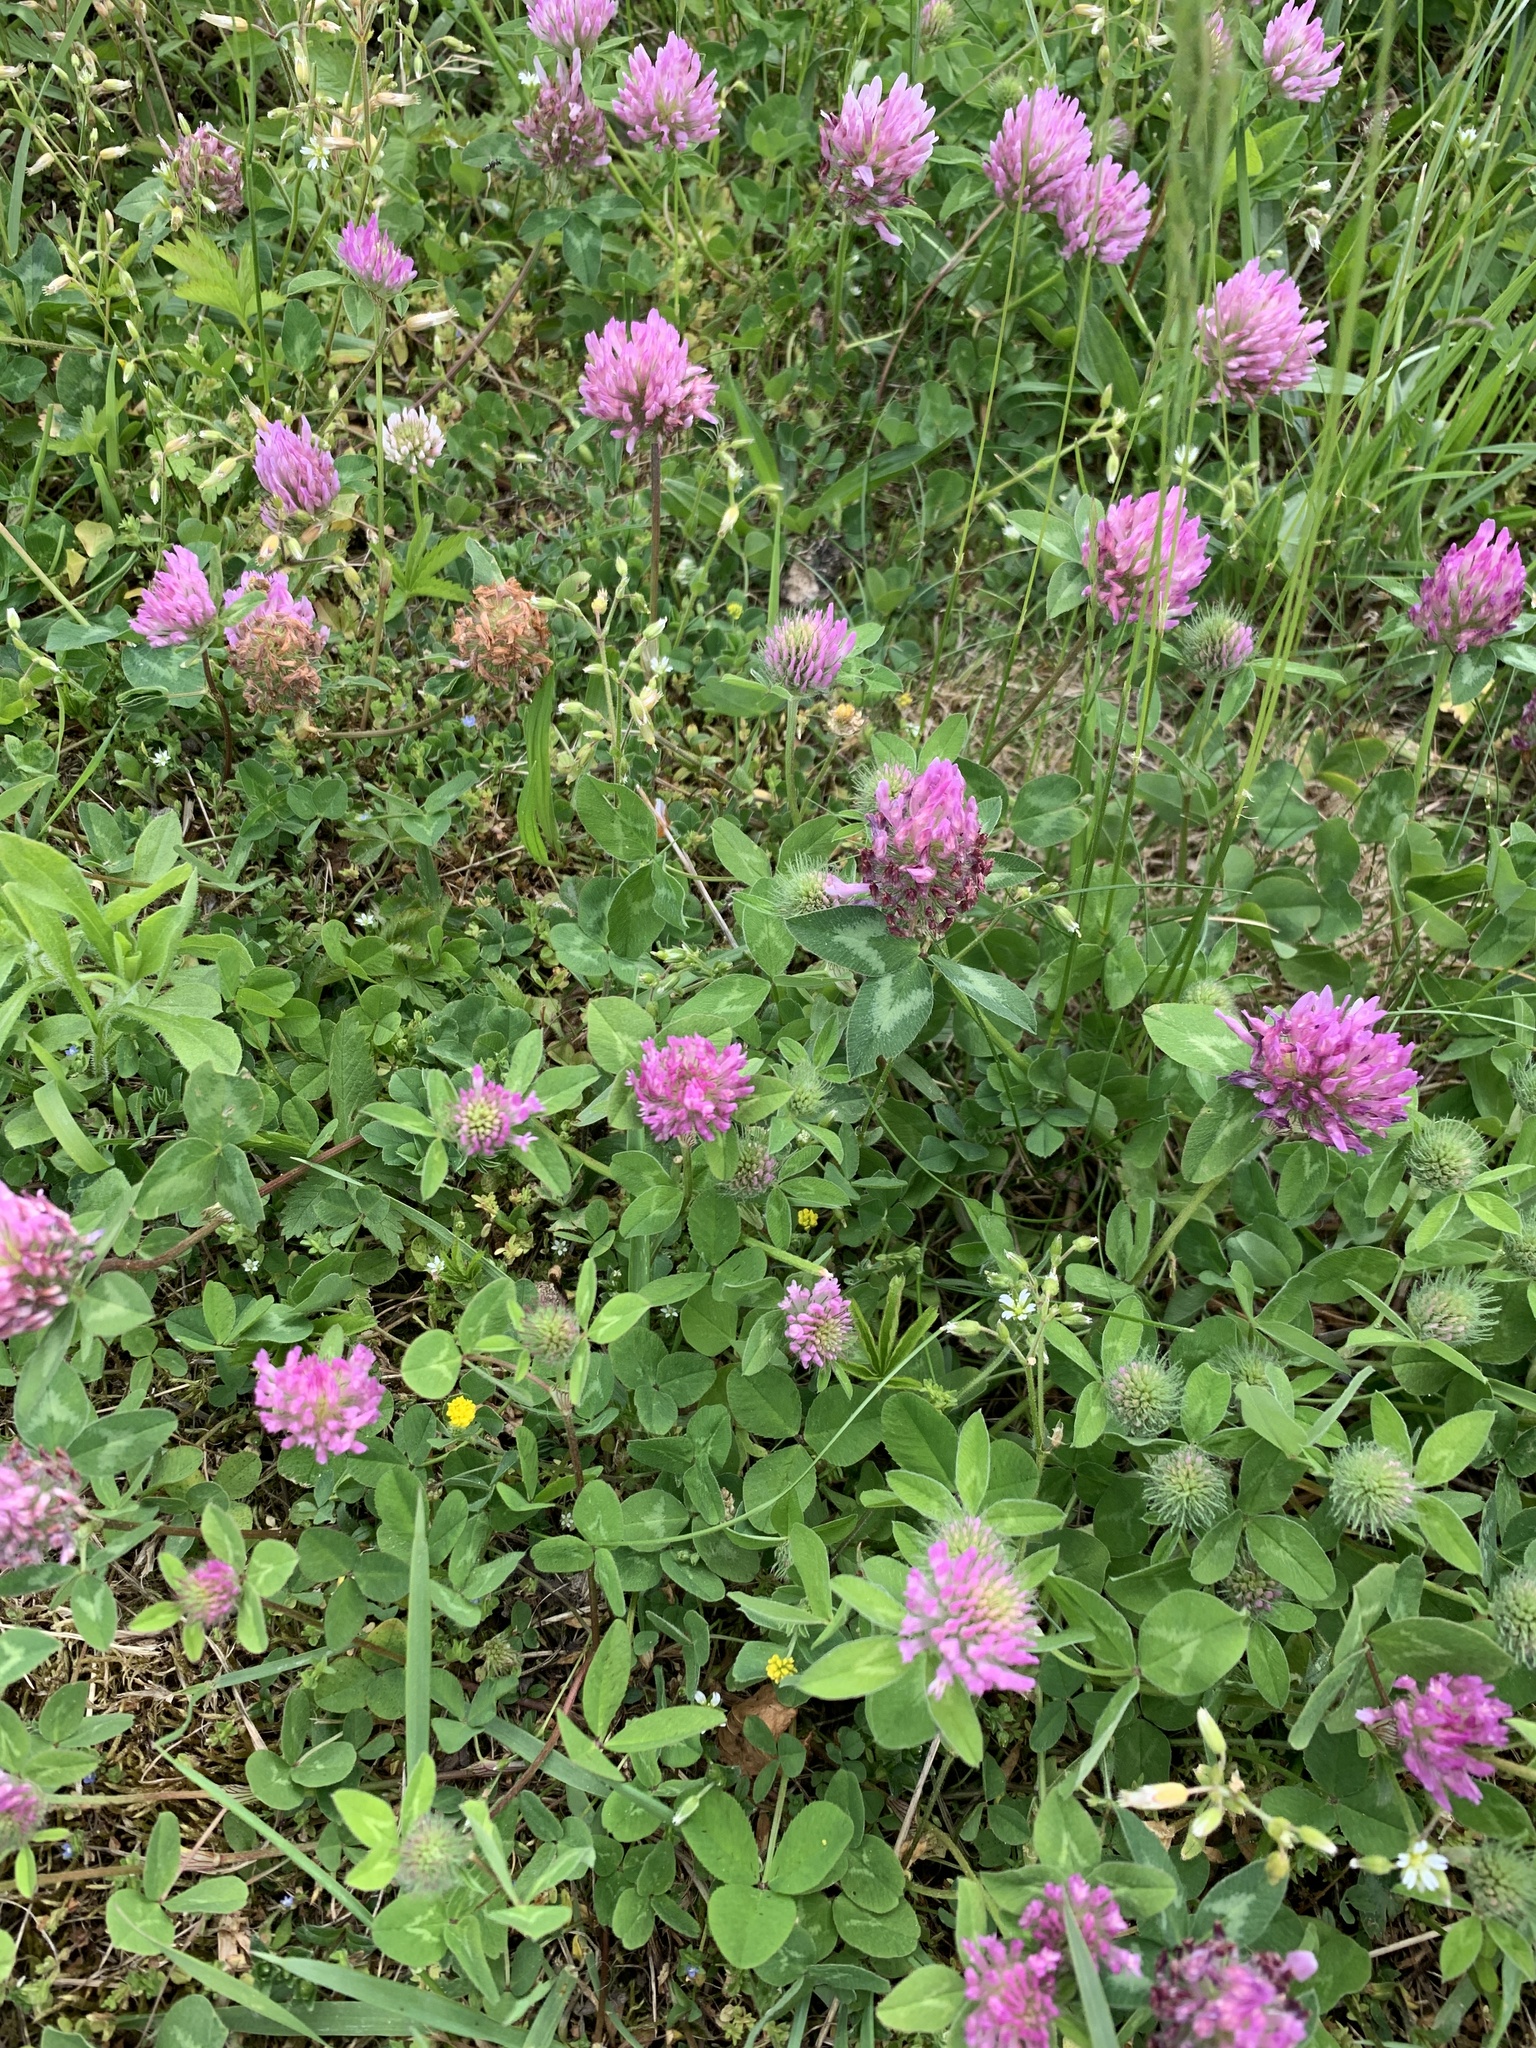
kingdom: Plantae
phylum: Tracheophyta
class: Magnoliopsida
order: Fabales
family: Fabaceae
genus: Trifolium
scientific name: Trifolium pratense
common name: Red clover
